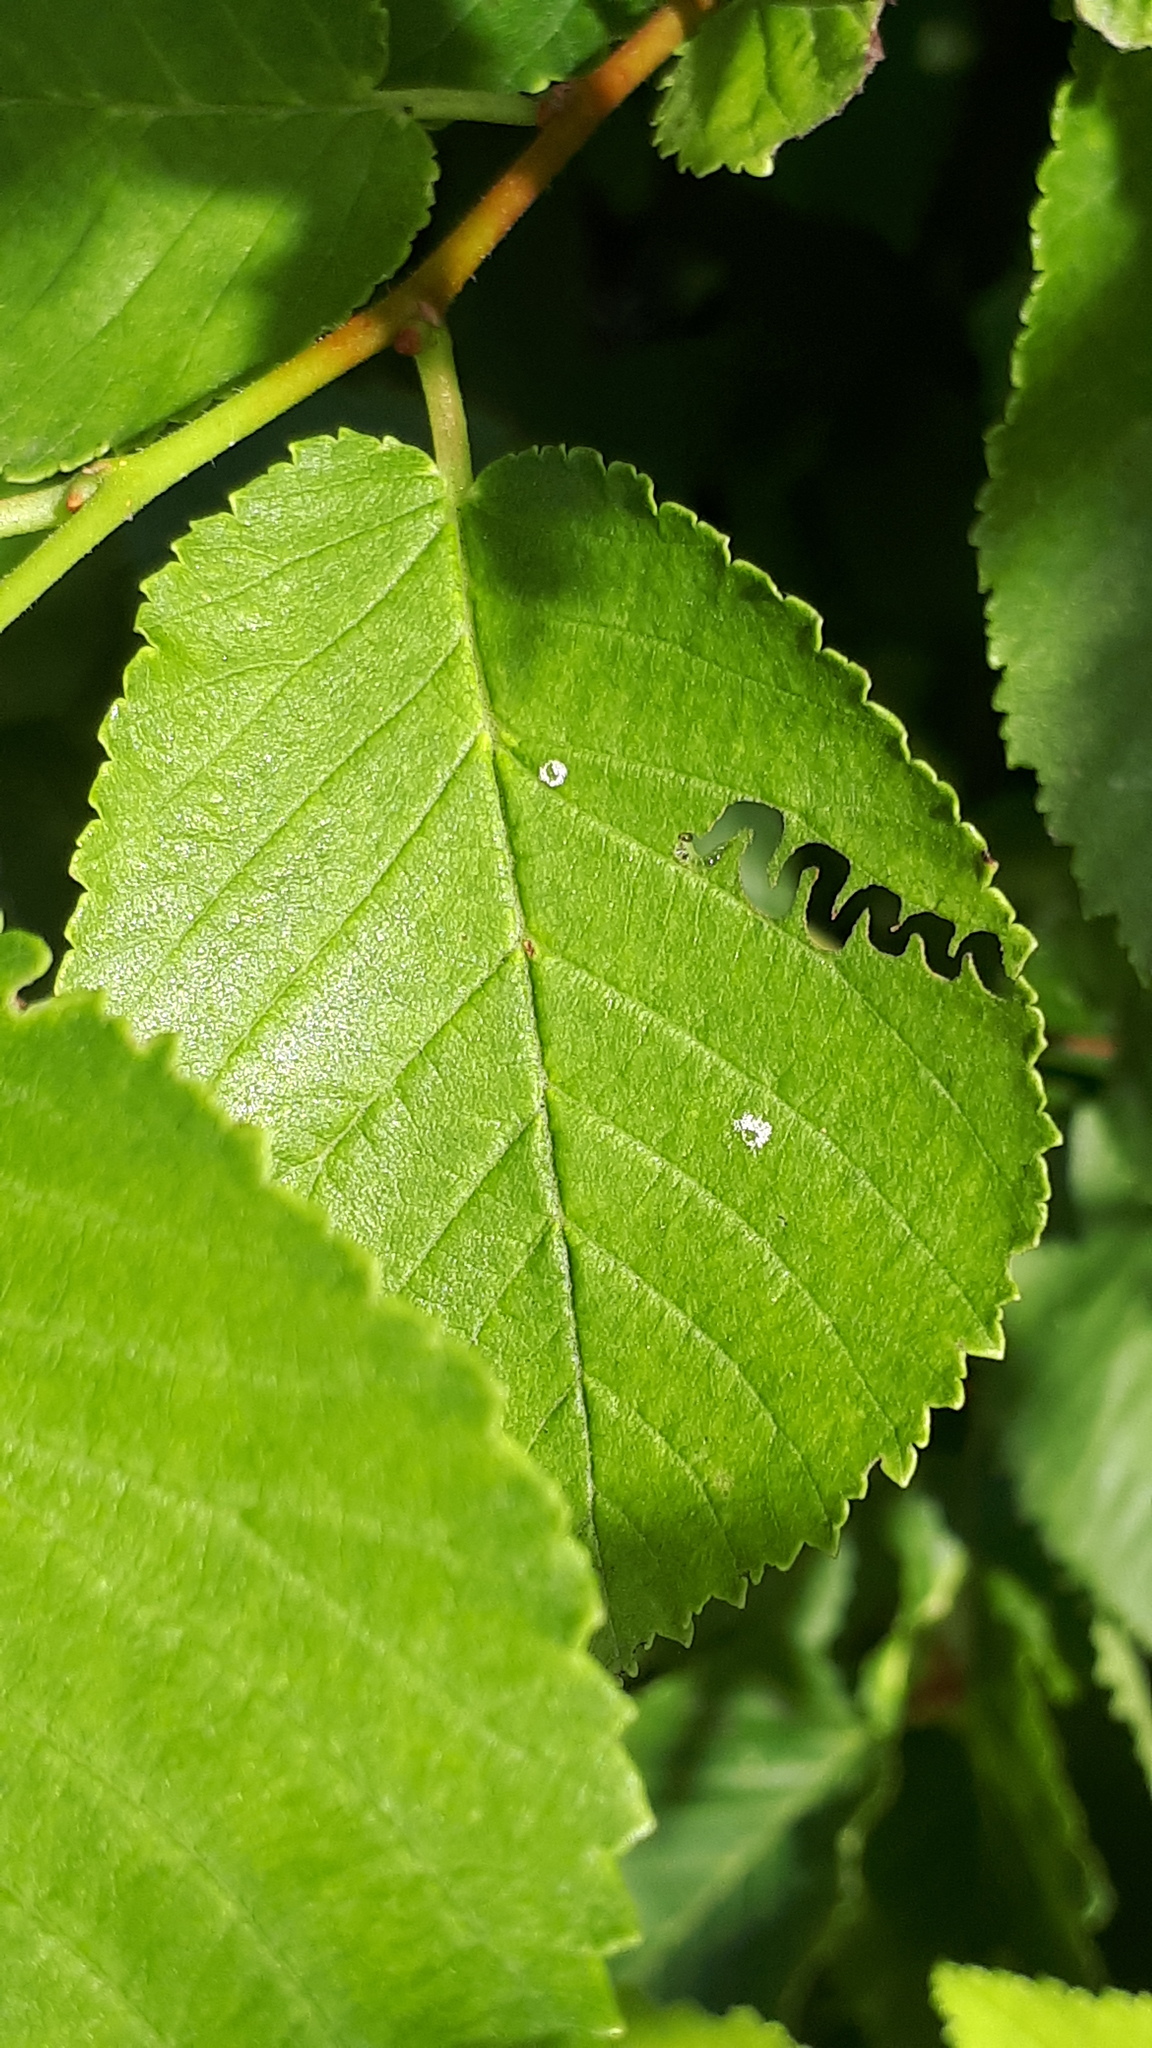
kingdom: Animalia
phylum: Arthropoda
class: Insecta
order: Hymenoptera
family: Argidae
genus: Aproceros
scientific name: Aproceros leucopoda
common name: Zig-zag elm sawfly
